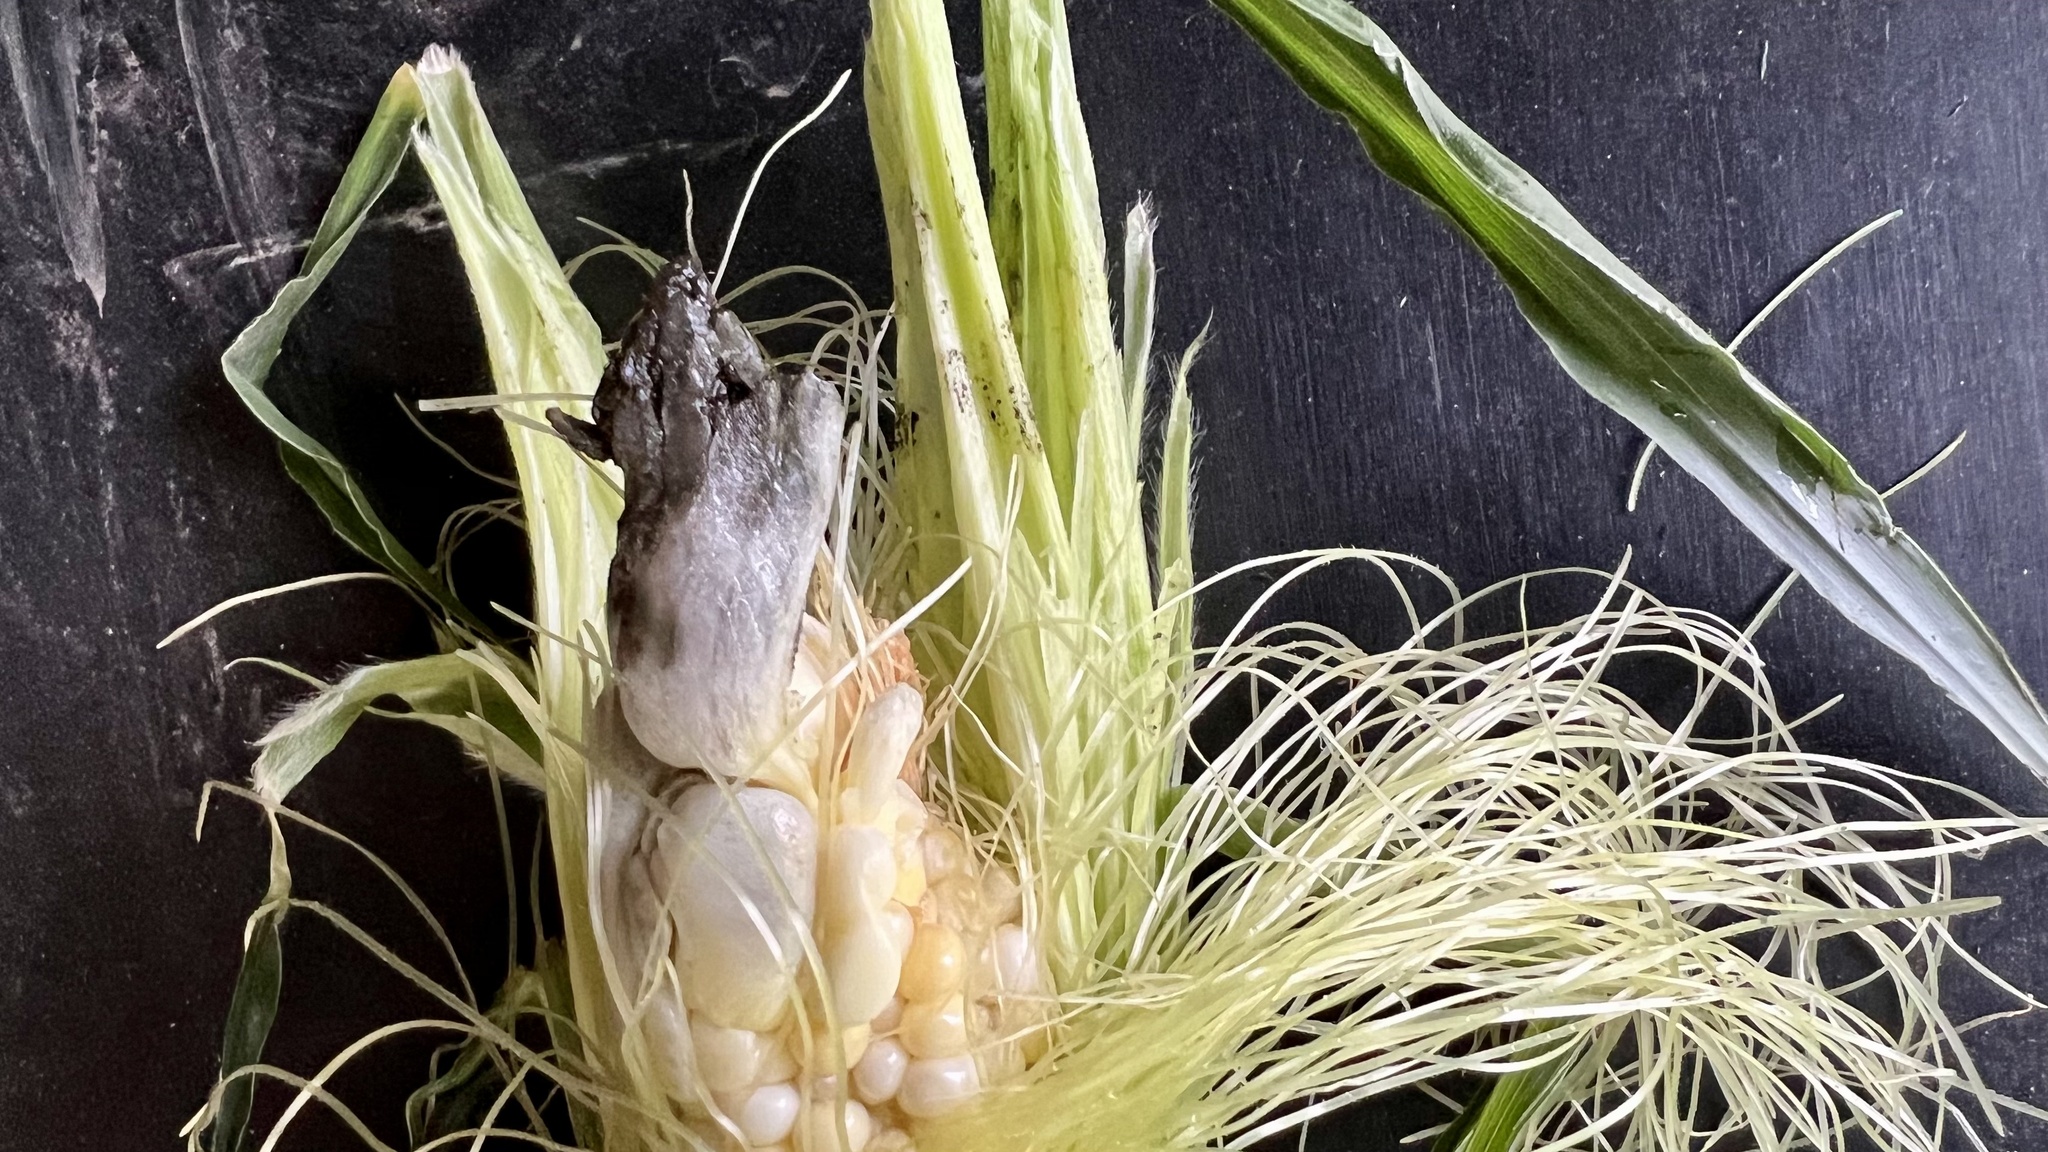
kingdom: Fungi
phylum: Basidiomycota
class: Ustilaginomycetes
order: Ustilaginales
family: Ustilaginaceae
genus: Mycosarcoma
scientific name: Mycosarcoma maydis
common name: Corn smut
